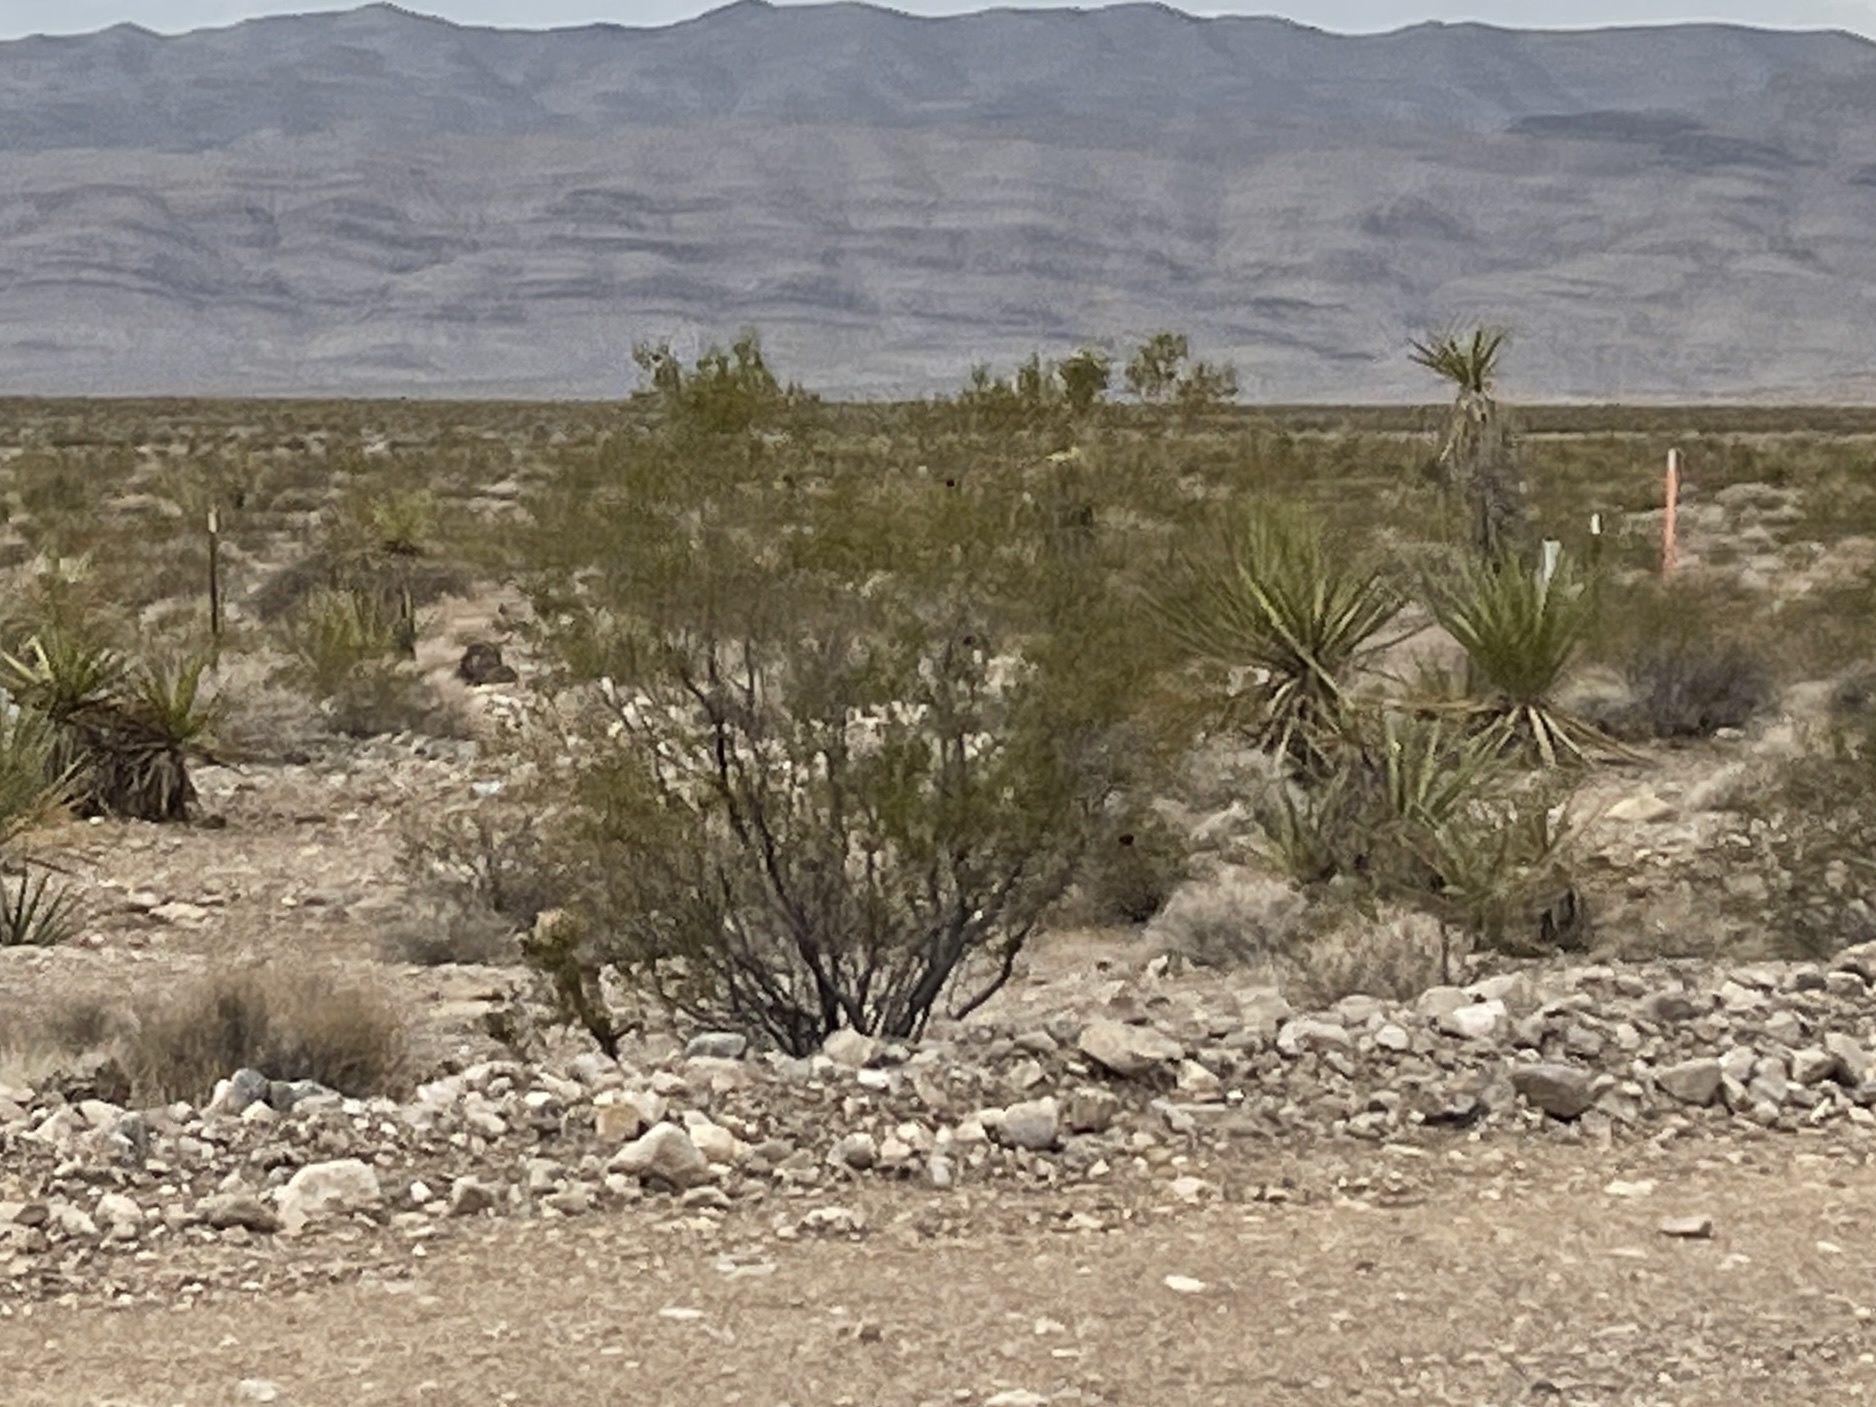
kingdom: Plantae
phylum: Tracheophyta
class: Magnoliopsida
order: Zygophyllales
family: Zygophyllaceae
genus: Larrea
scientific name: Larrea tridentata
